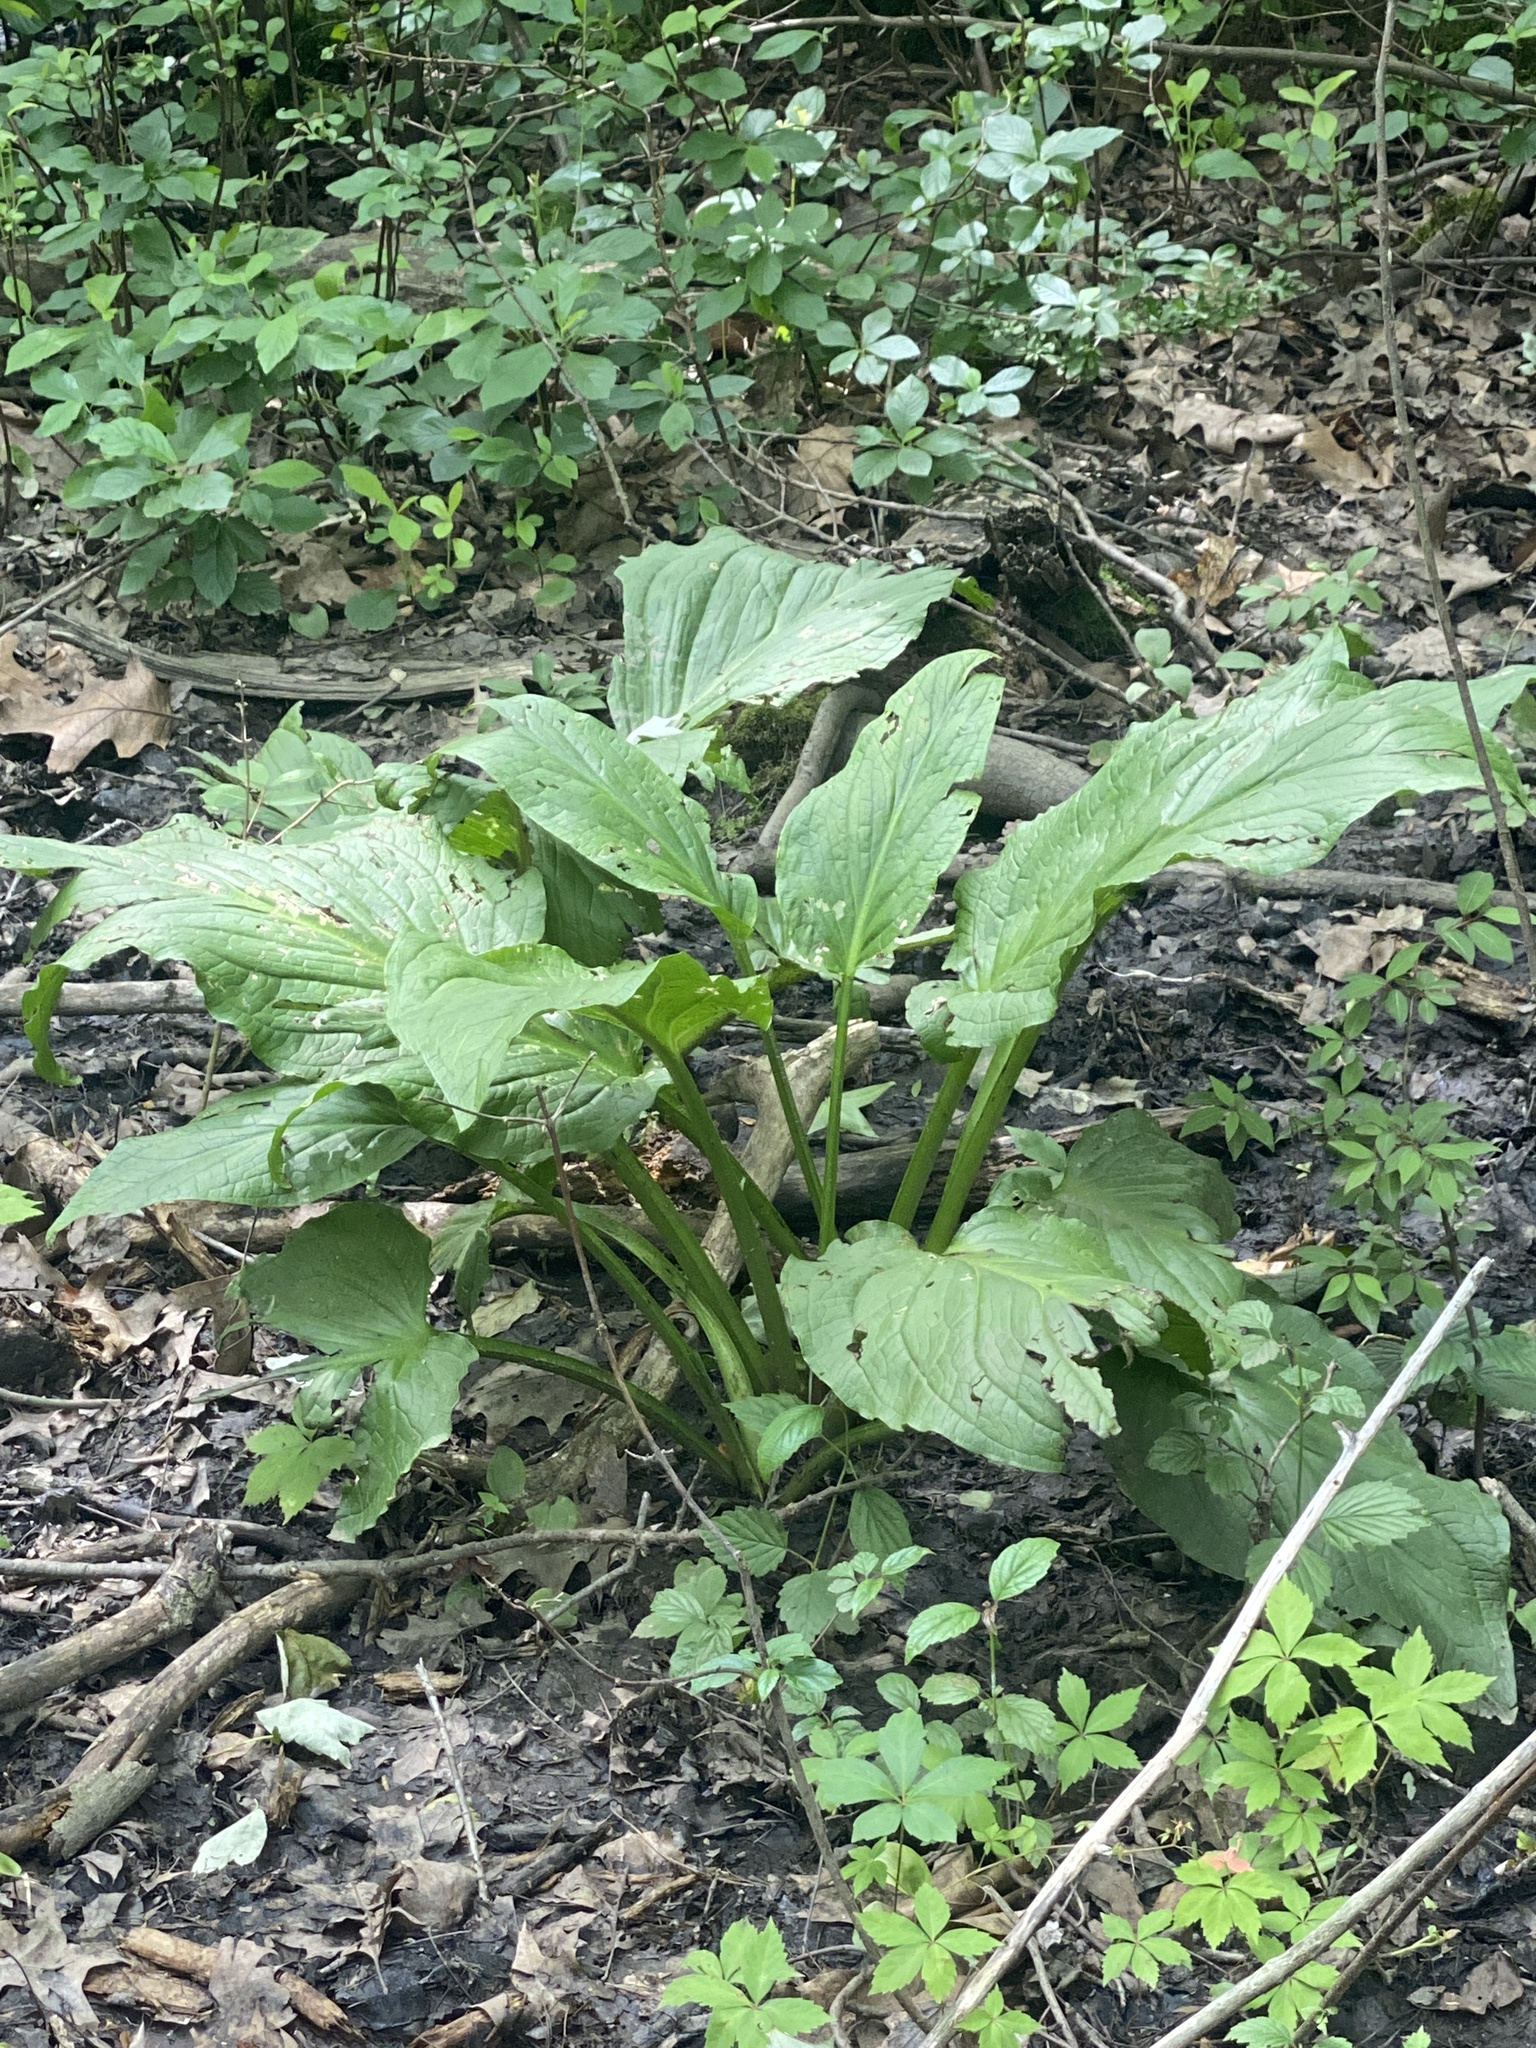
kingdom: Plantae
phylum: Tracheophyta
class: Liliopsida
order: Alismatales
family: Araceae
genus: Symplocarpus
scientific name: Symplocarpus foetidus
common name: Eastern skunk cabbage
